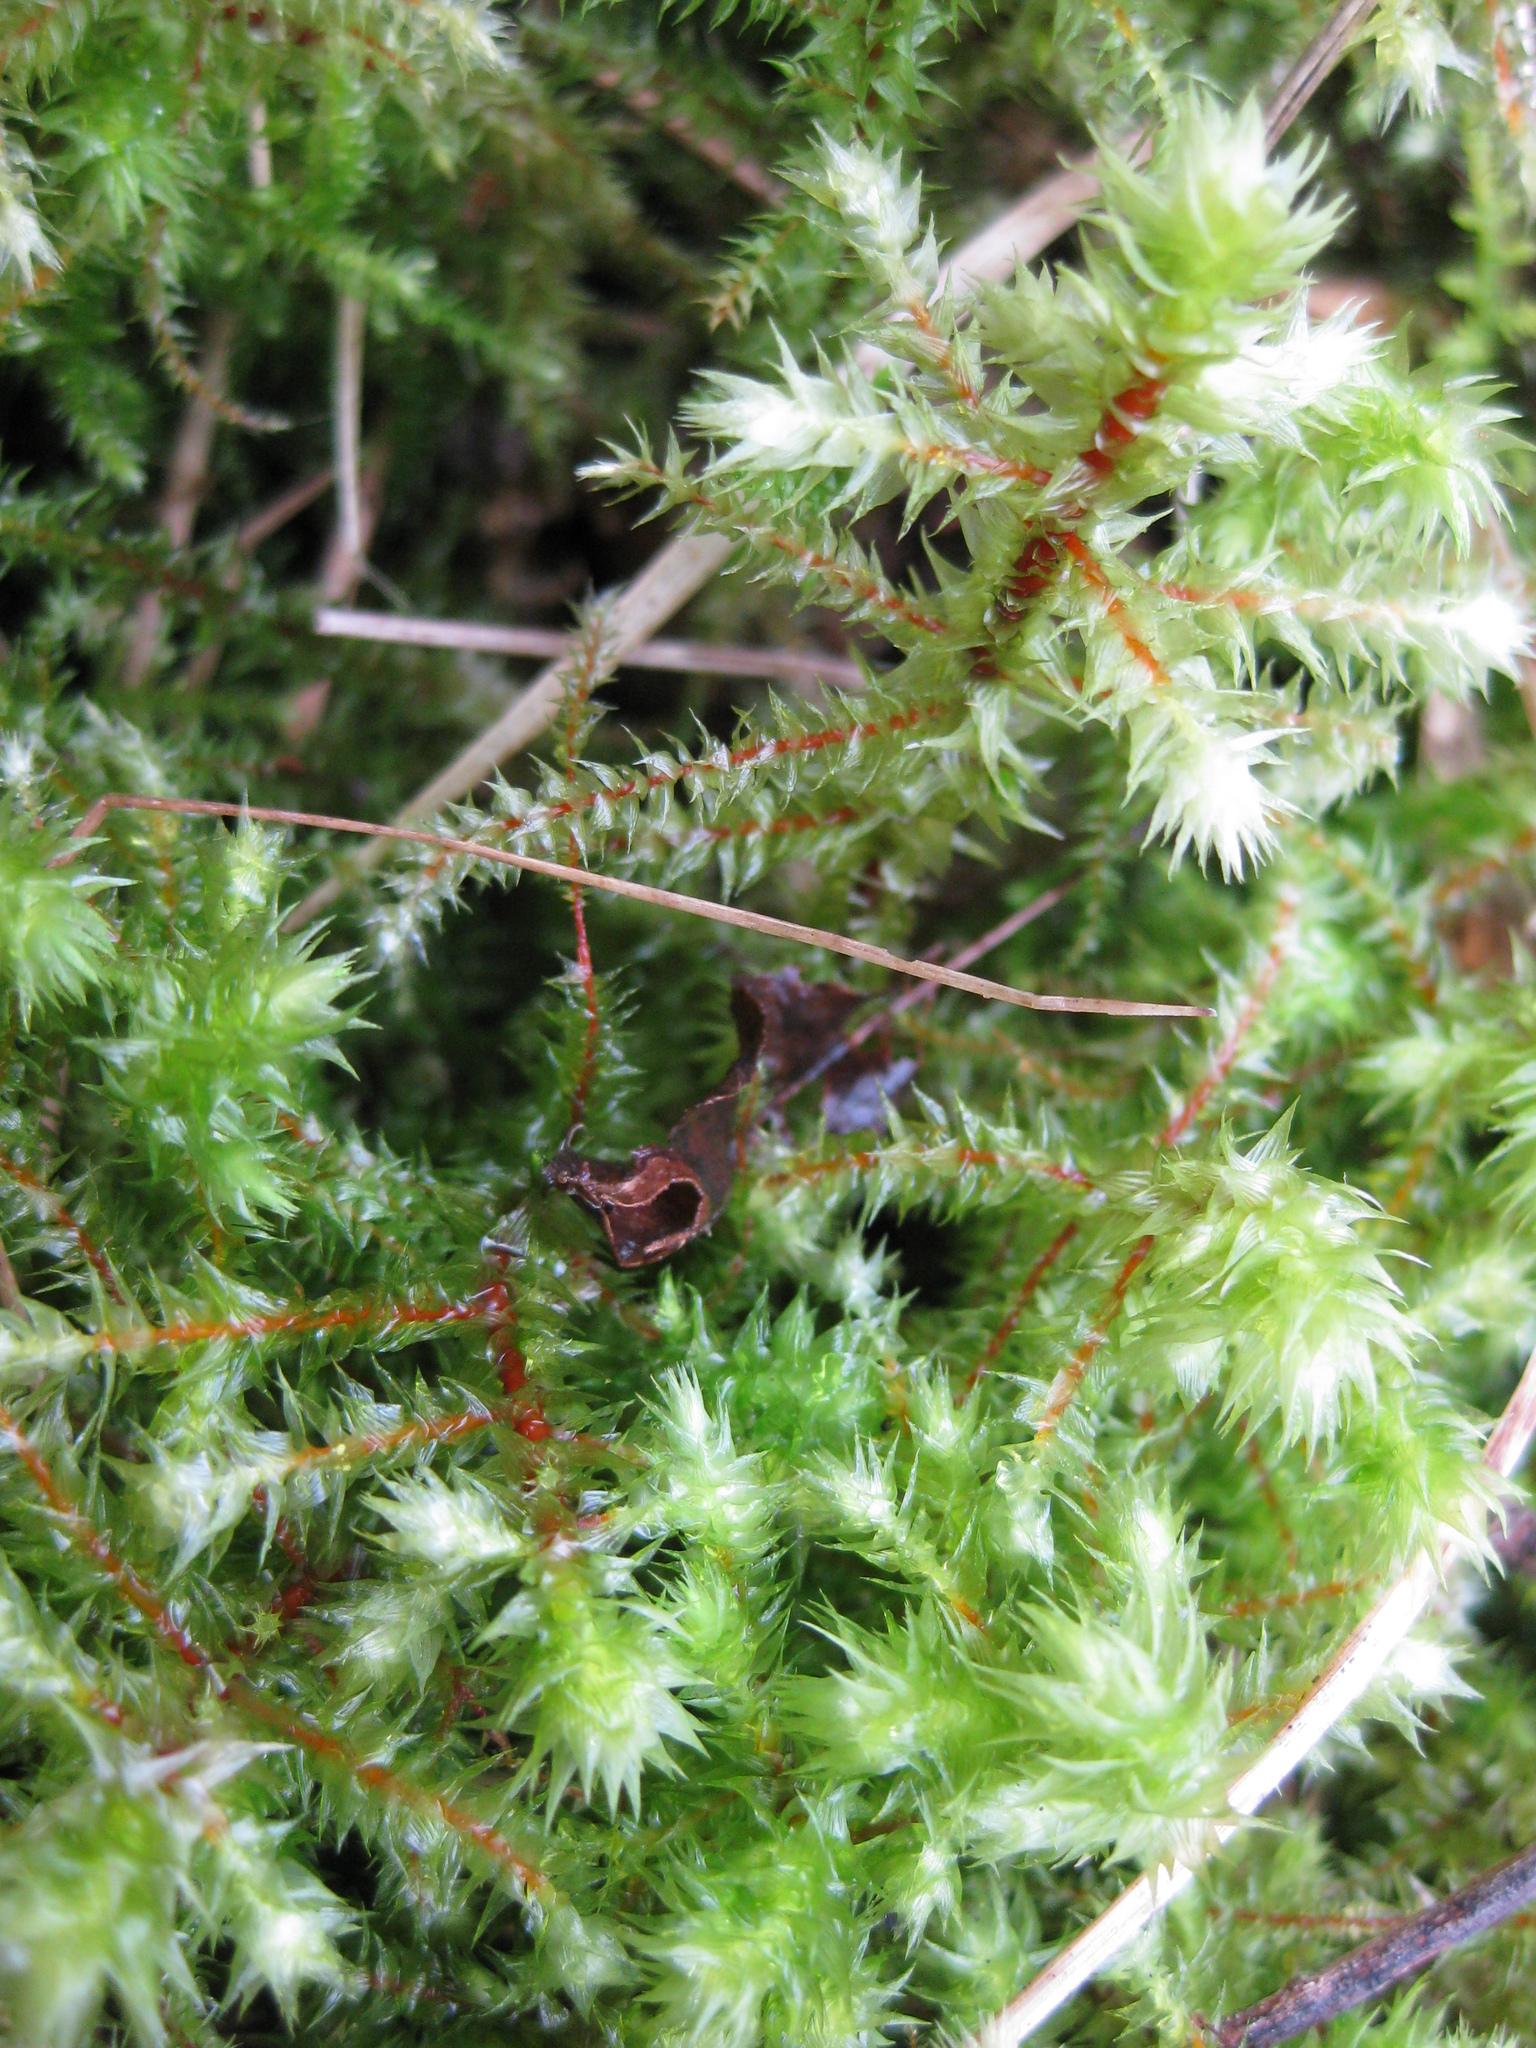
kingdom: Plantae
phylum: Bryophyta
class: Bryopsida
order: Hypnales
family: Hylocomiaceae
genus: Hylocomiadelphus
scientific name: Hylocomiadelphus triquetrus
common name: Rough goose neck moss
